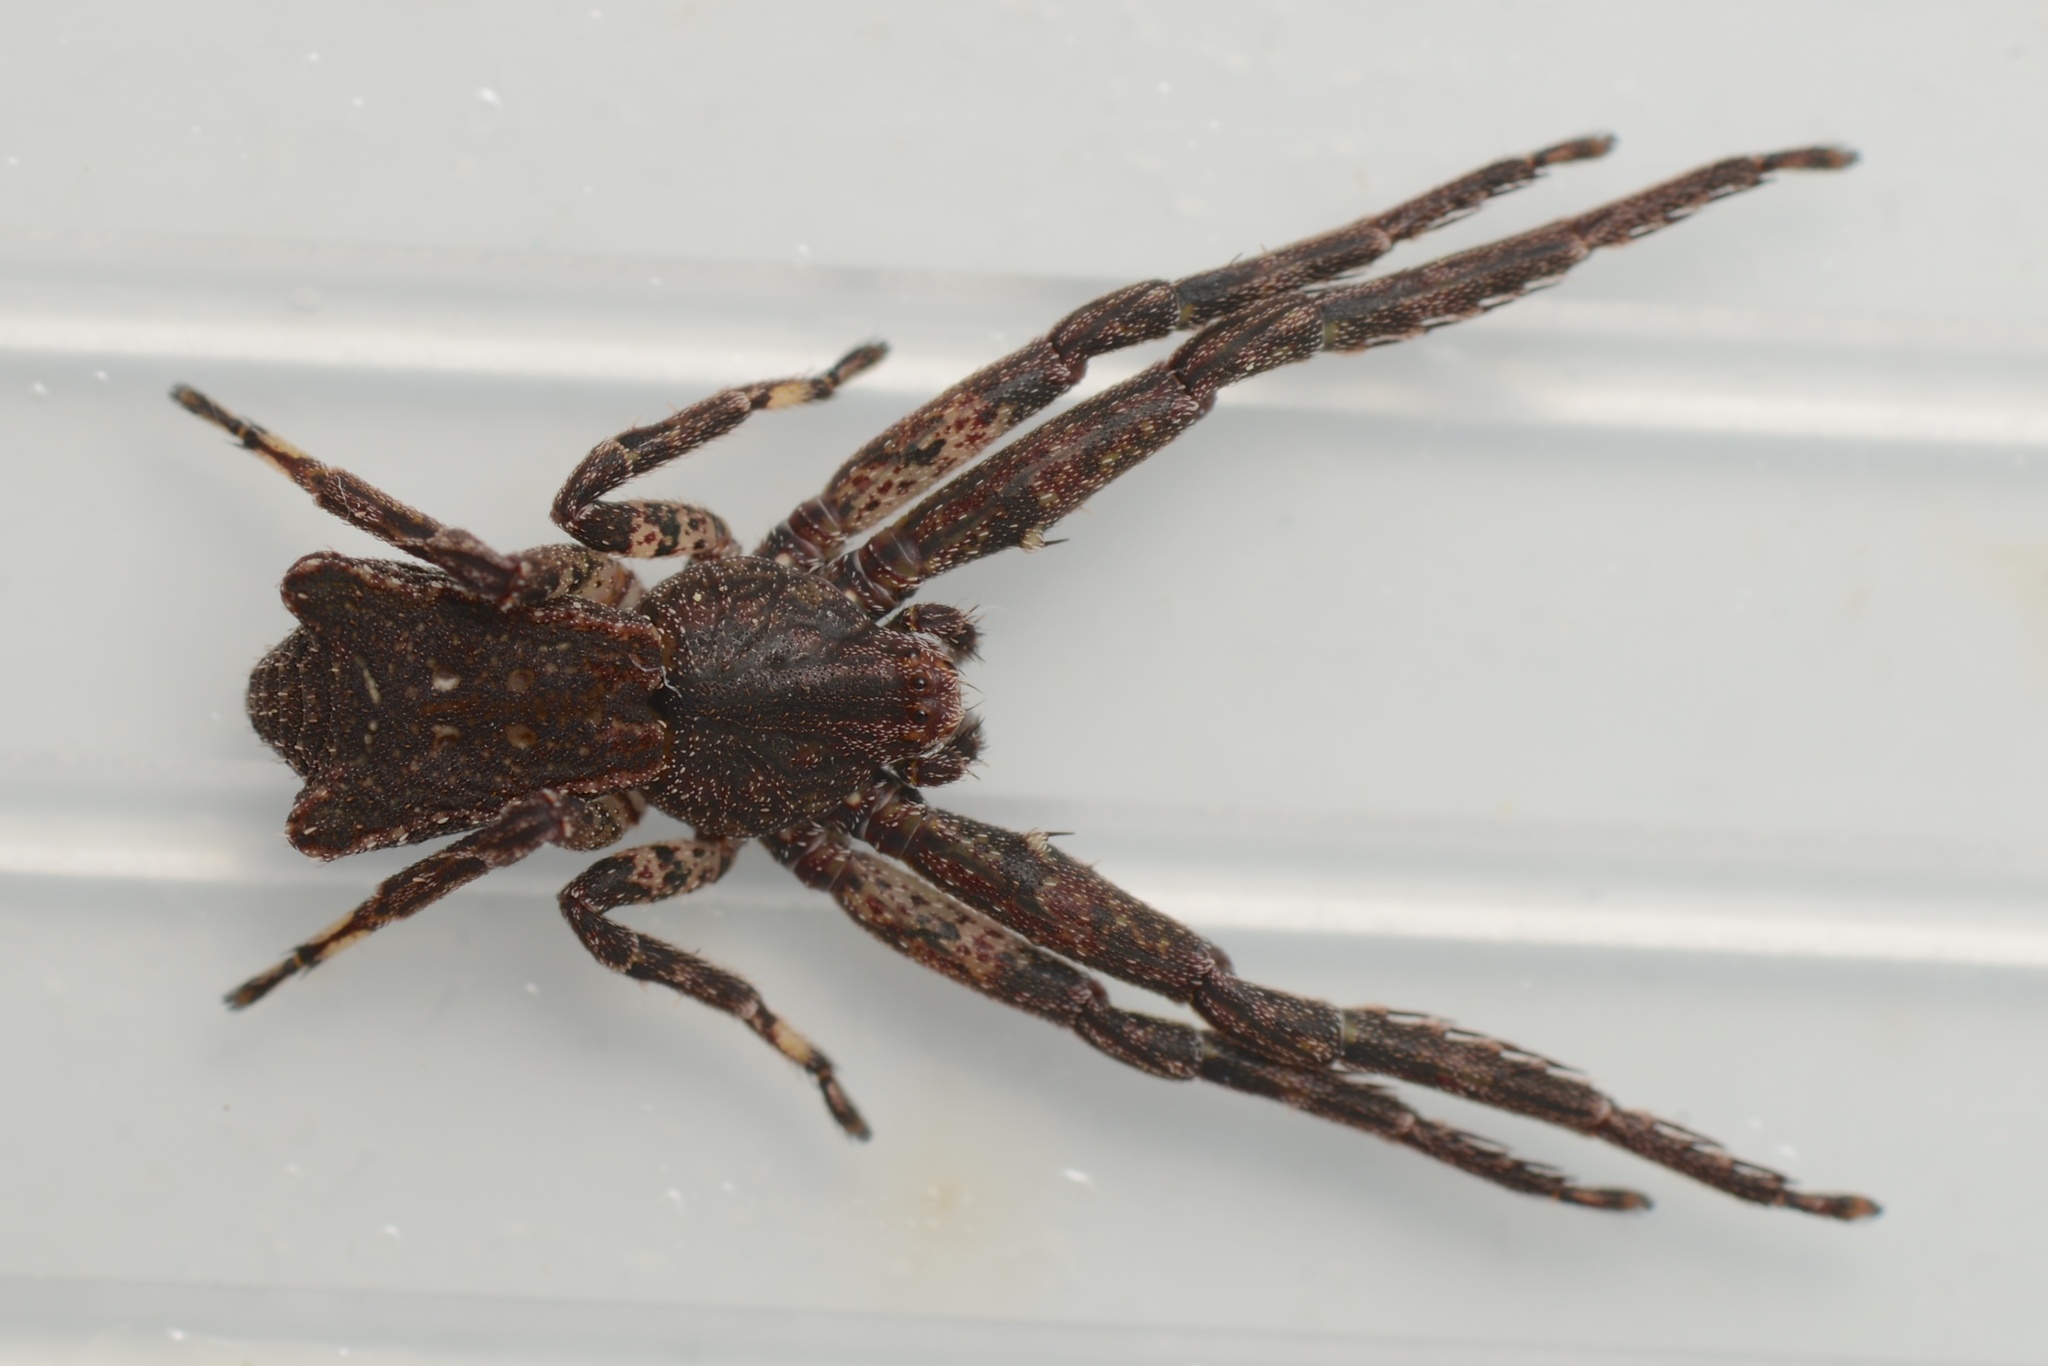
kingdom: Animalia
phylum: Arthropoda
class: Arachnida
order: Araneae
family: Thomisidae
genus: Sidymella
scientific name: Sidymella angularis
